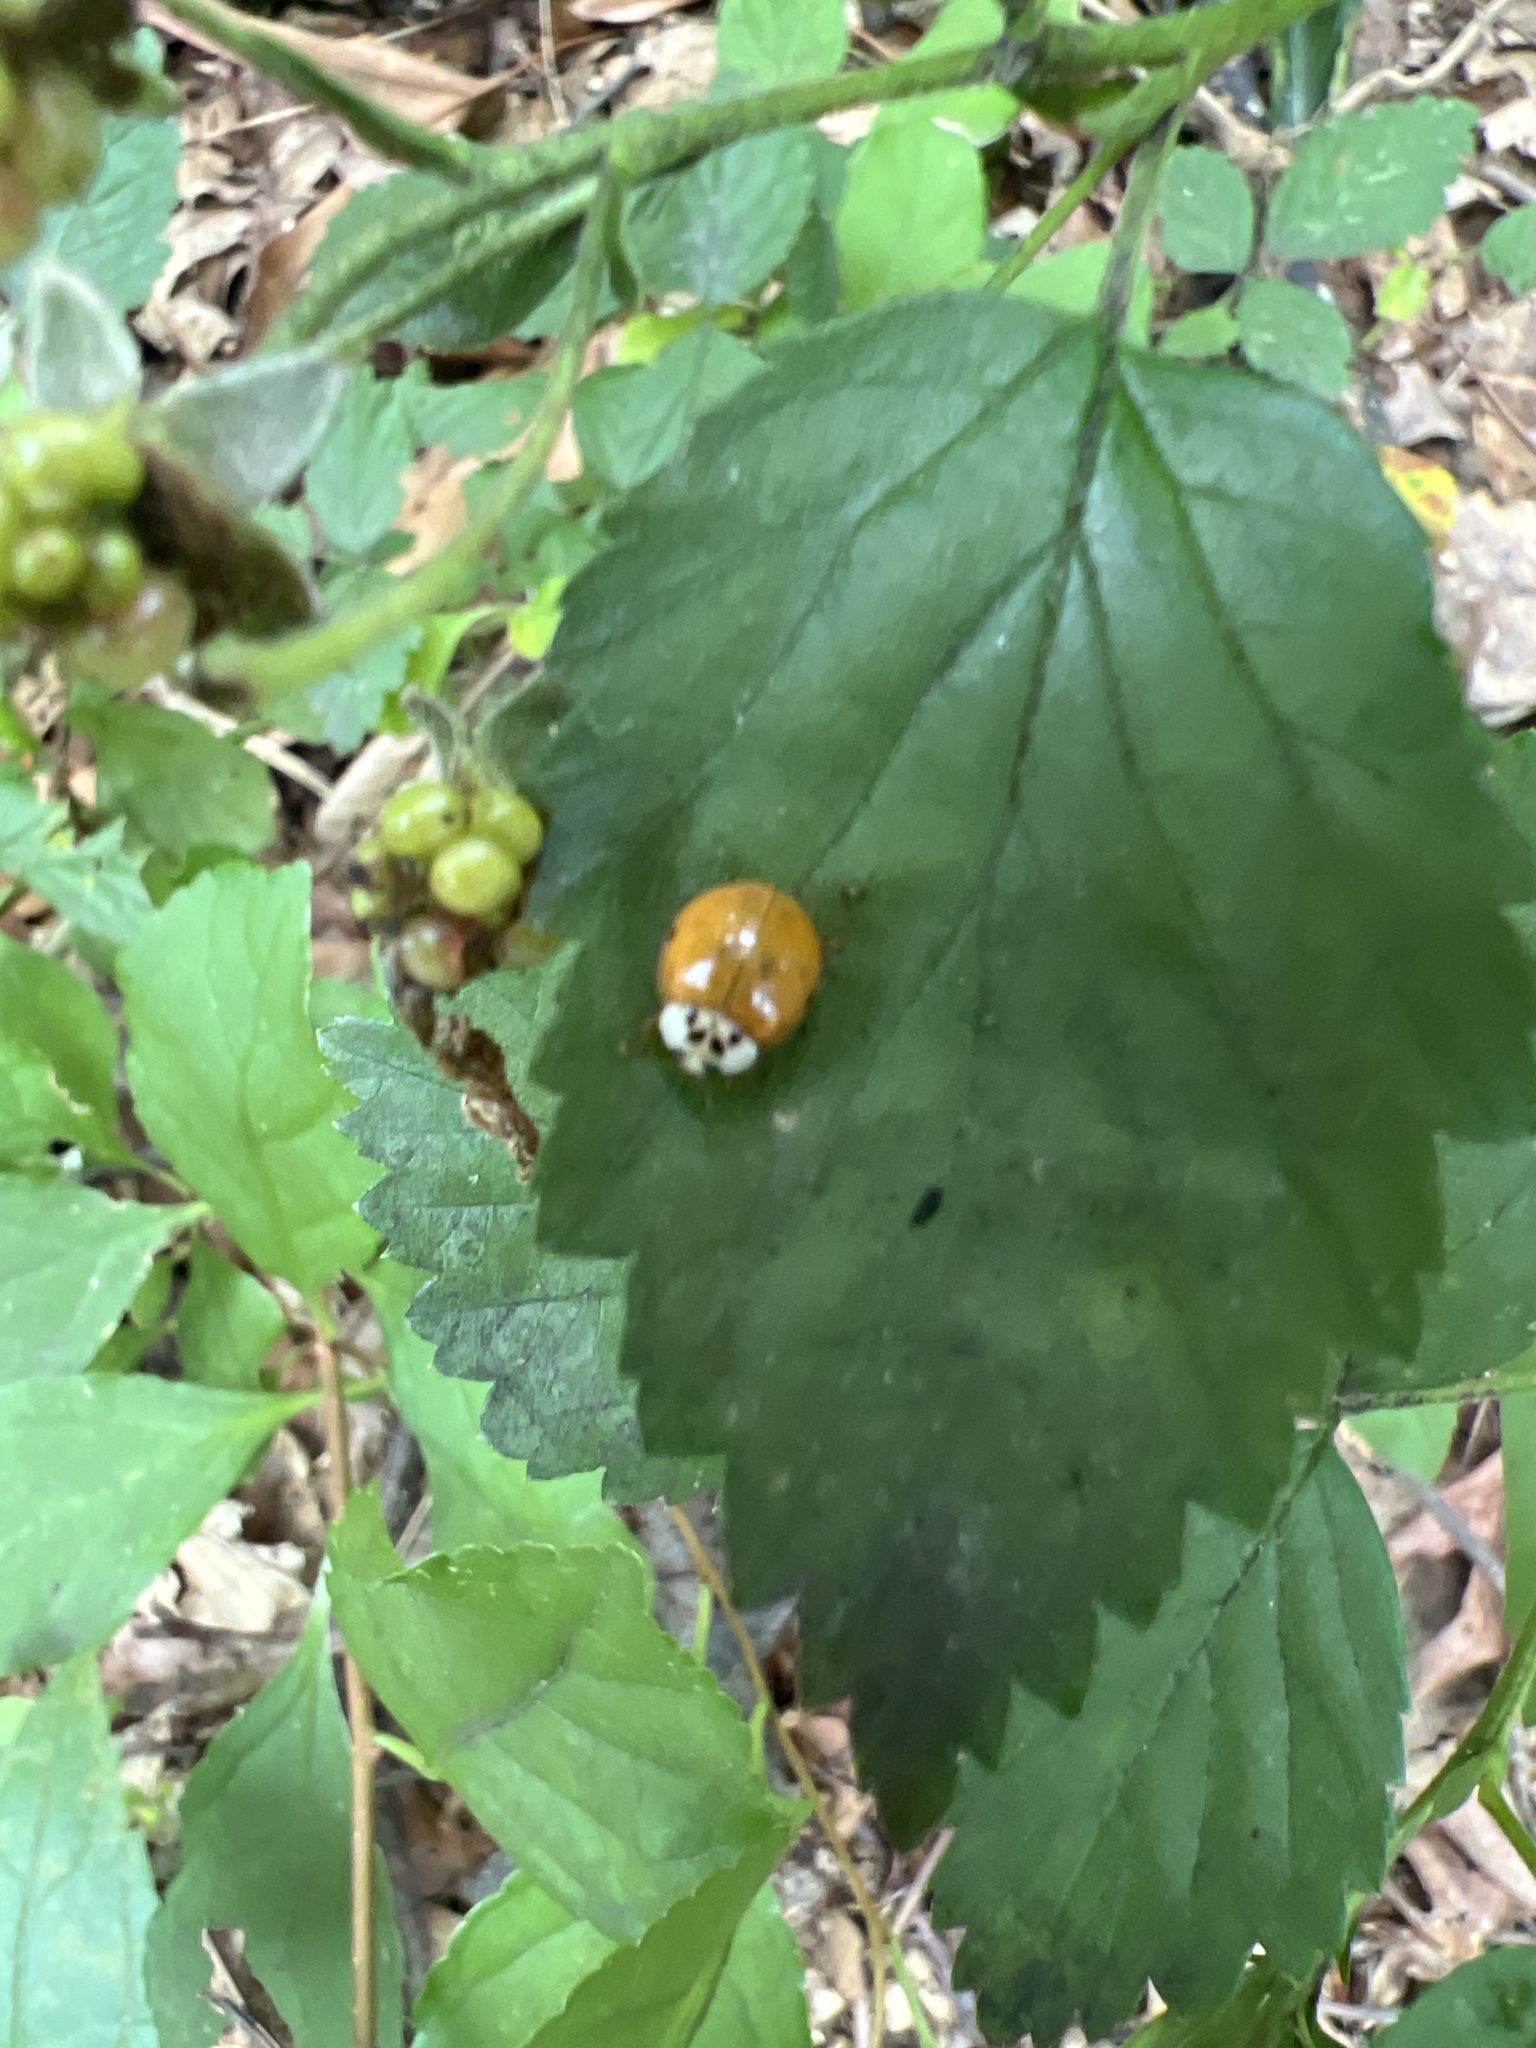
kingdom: Animalia
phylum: Arthropoda
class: Insecta
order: Coleoptera
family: Coccinellidae
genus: Harmonia
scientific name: Harmonia axyridis
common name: Harlequin ladybird
